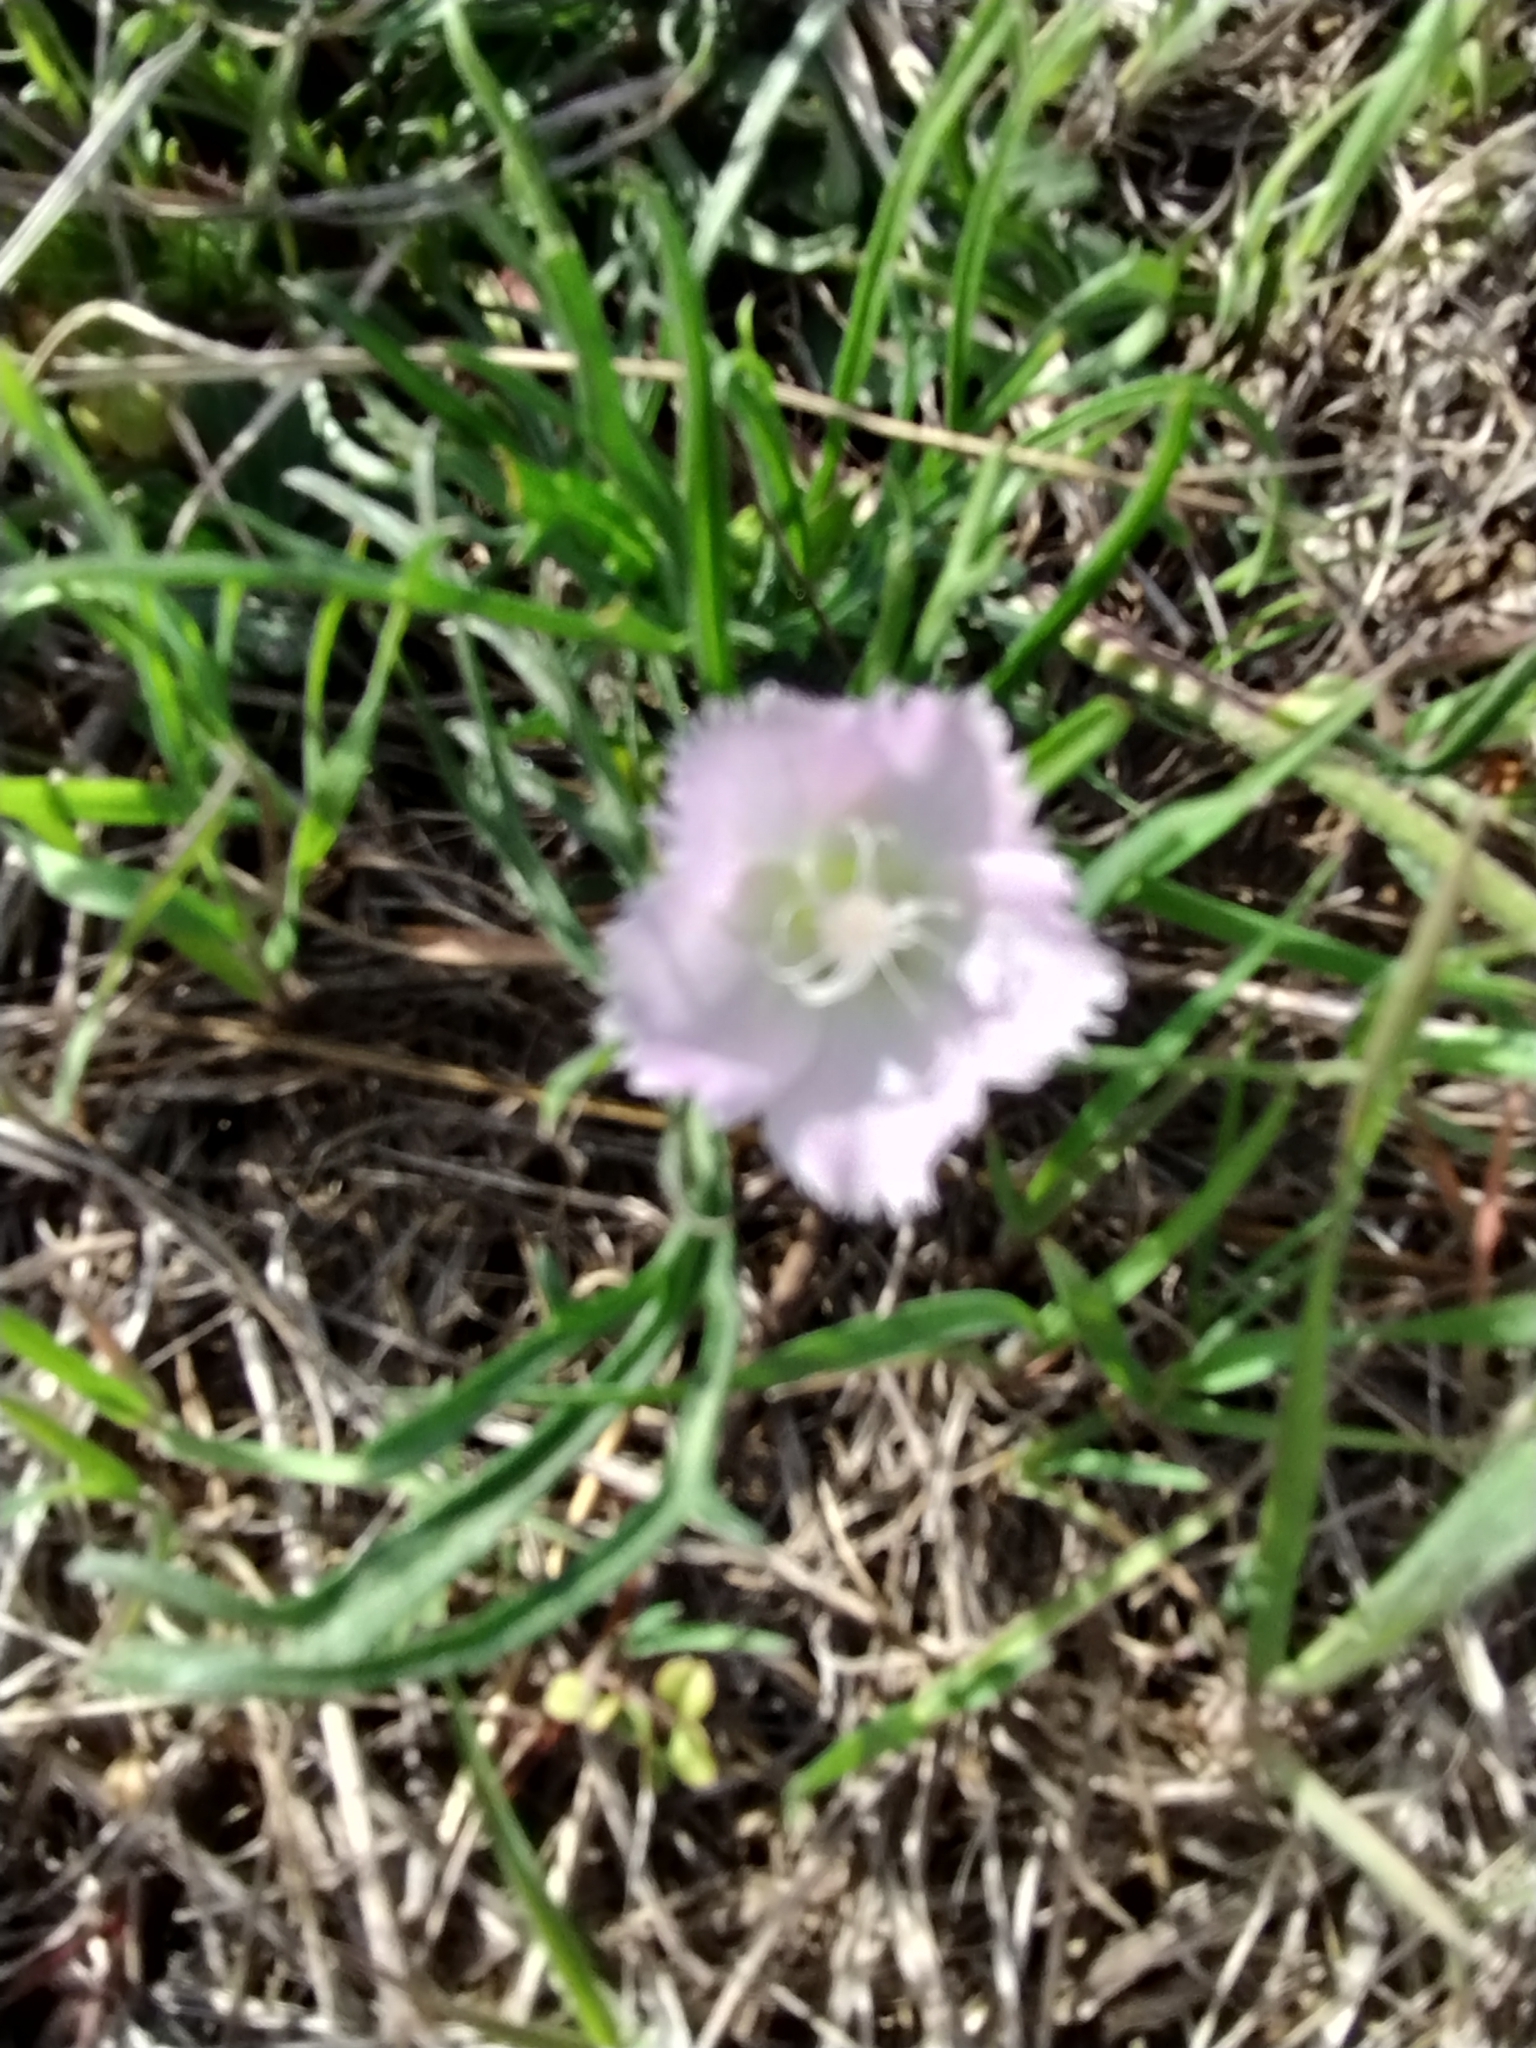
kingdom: Plantae
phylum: Tracheophyta
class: Magnoliopsida
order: Malvales
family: Malvaceae
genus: Callirhoe
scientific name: Callirhoe alcaeoides
